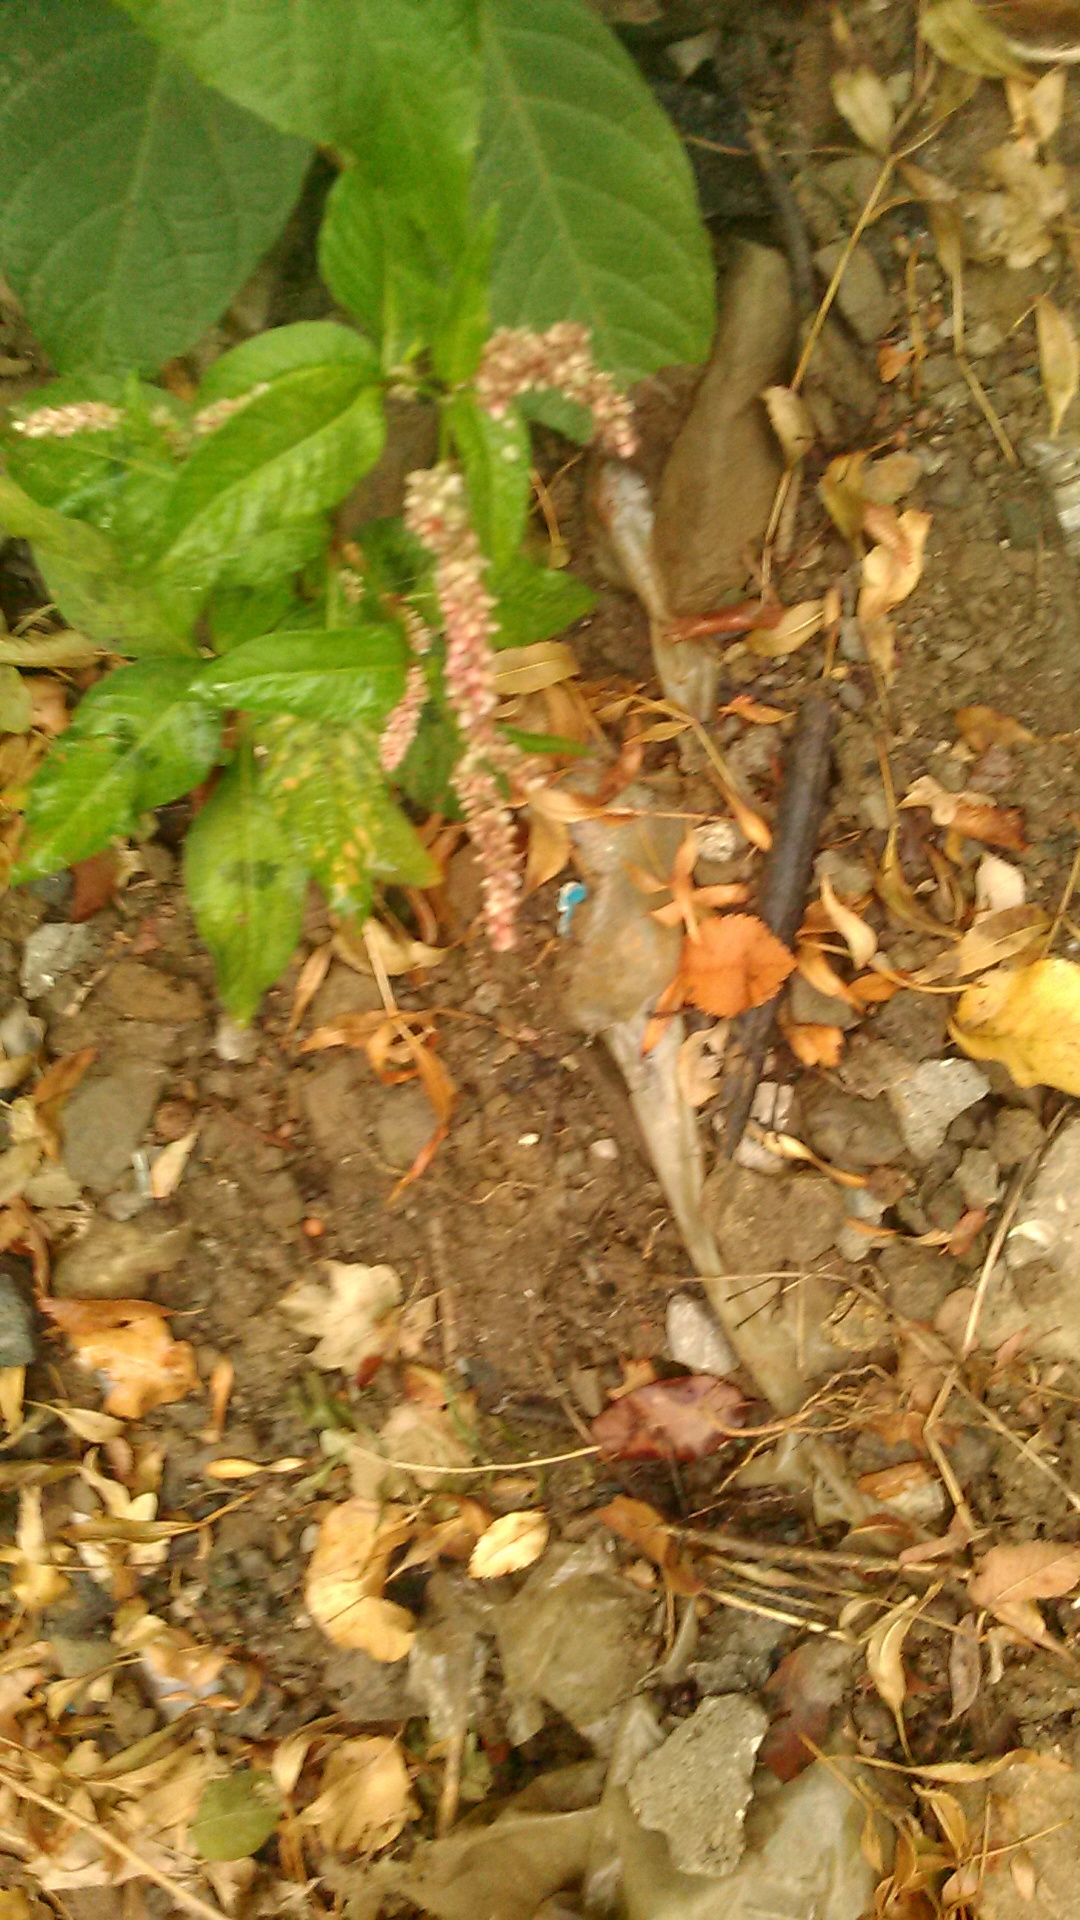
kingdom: Plantae
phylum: Tracheophyta
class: Magnoliopsida
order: Caryophyllales
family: Polygonaceae
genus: Persicaria
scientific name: Persicaria lapathifolia
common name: Curlytop knotweed
